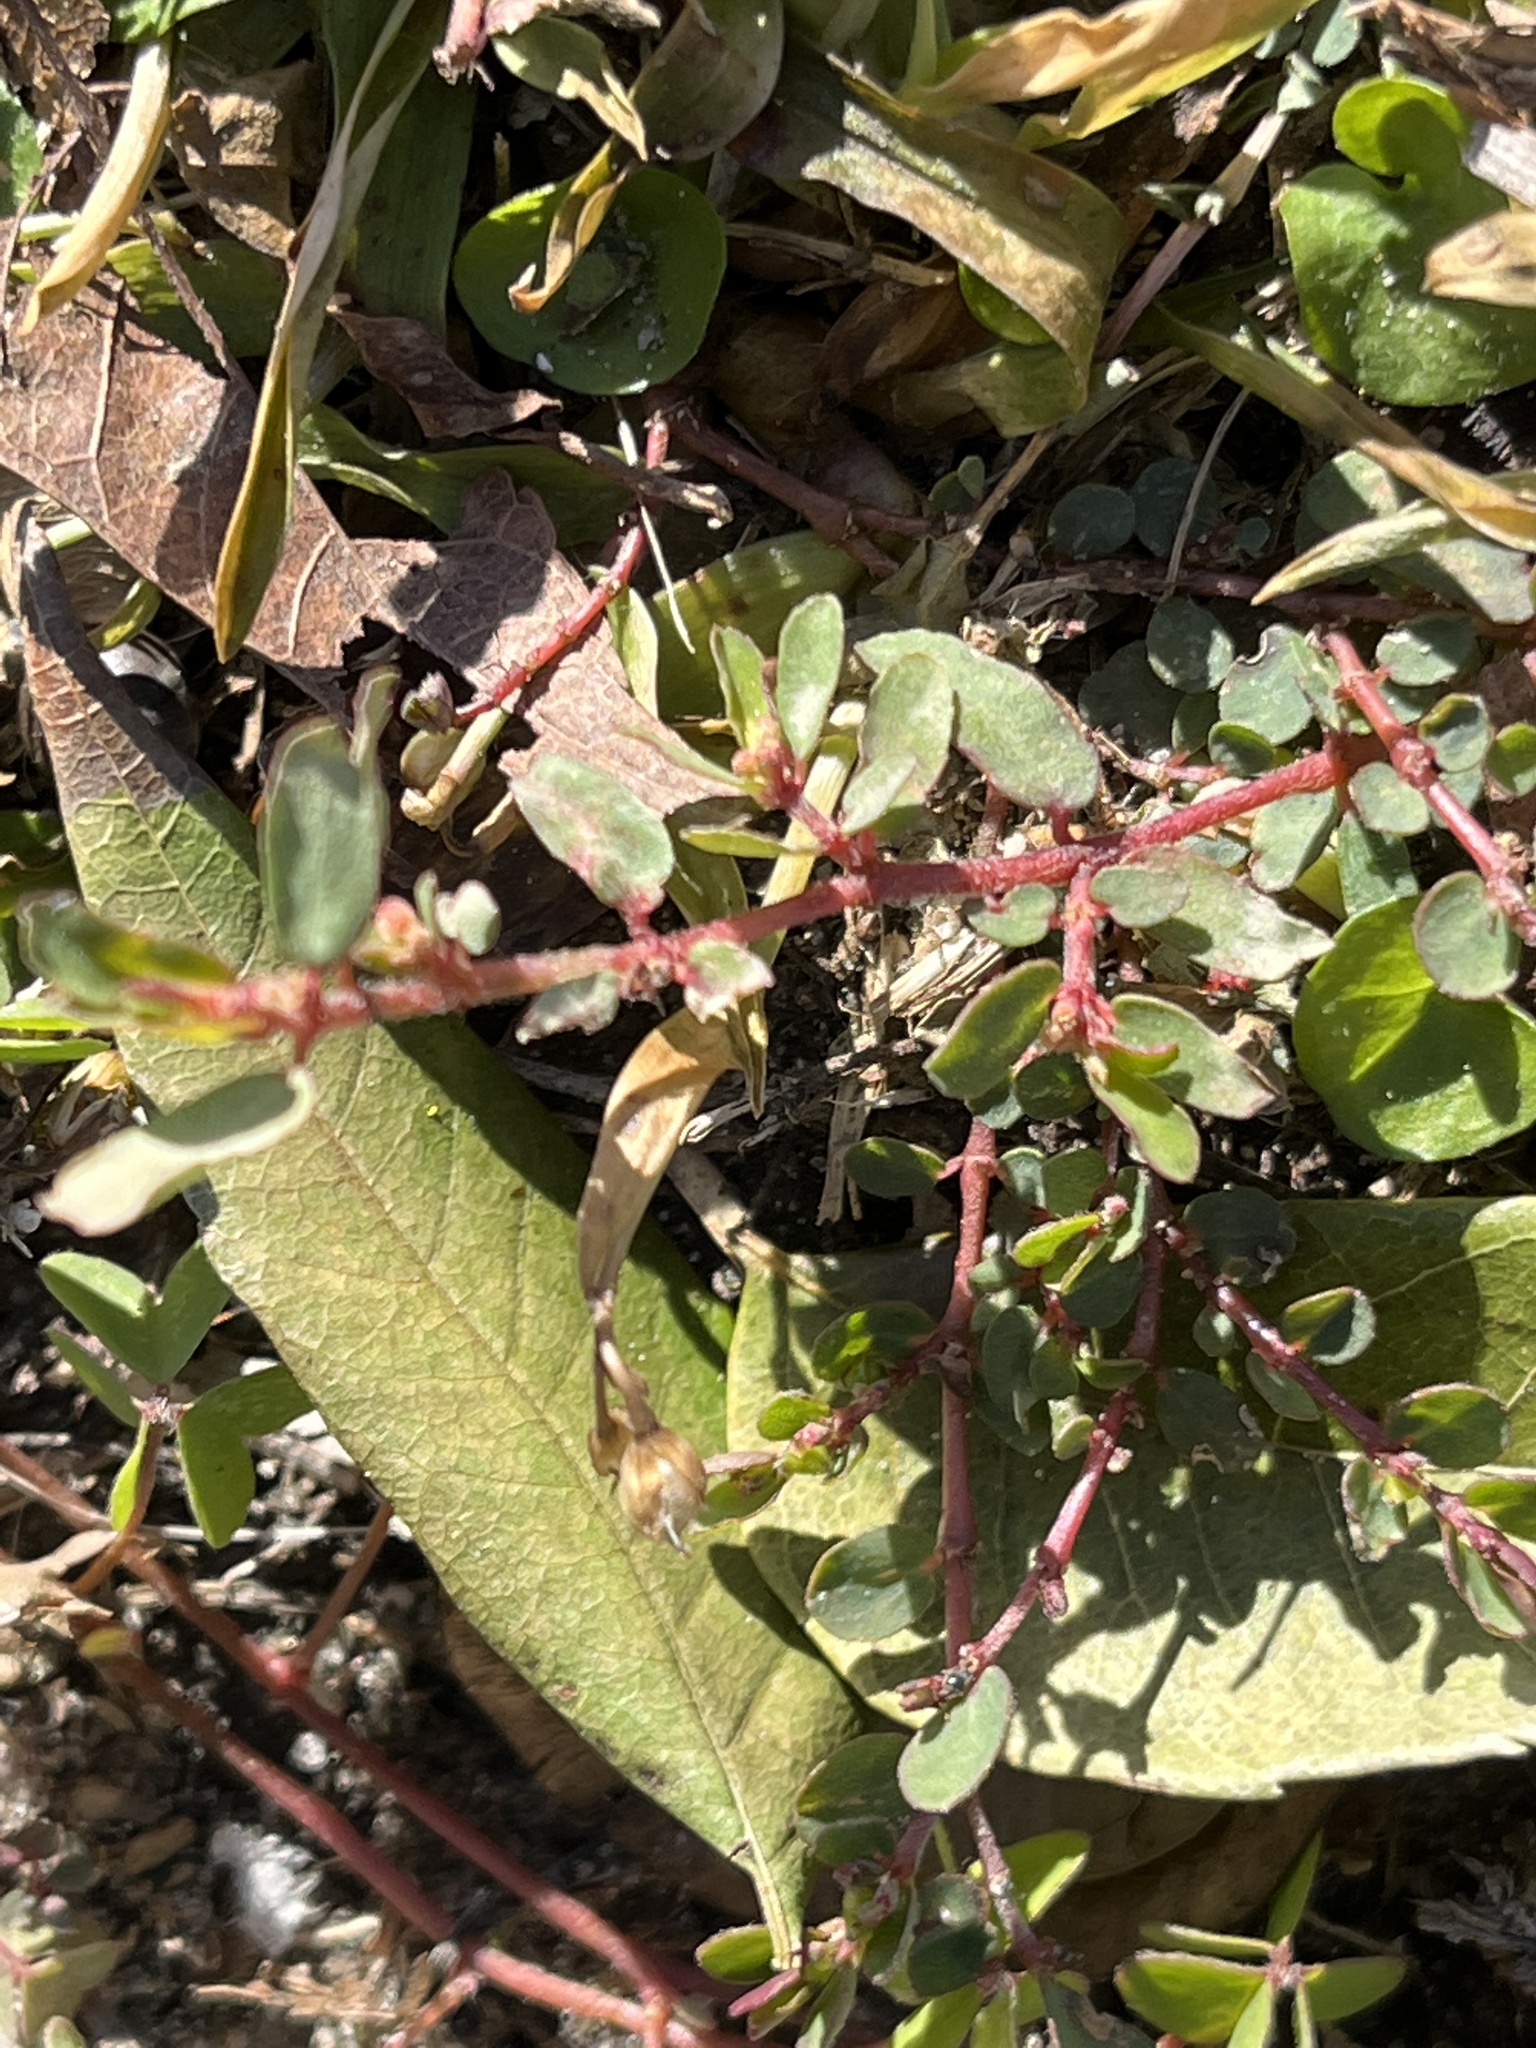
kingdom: Plantae
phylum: Tracheophyta
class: Magnoliopsida
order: Malpighiales
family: Euphorbiaceae
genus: Euphorbia
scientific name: Euphorbia maculata
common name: Spotted spurge
